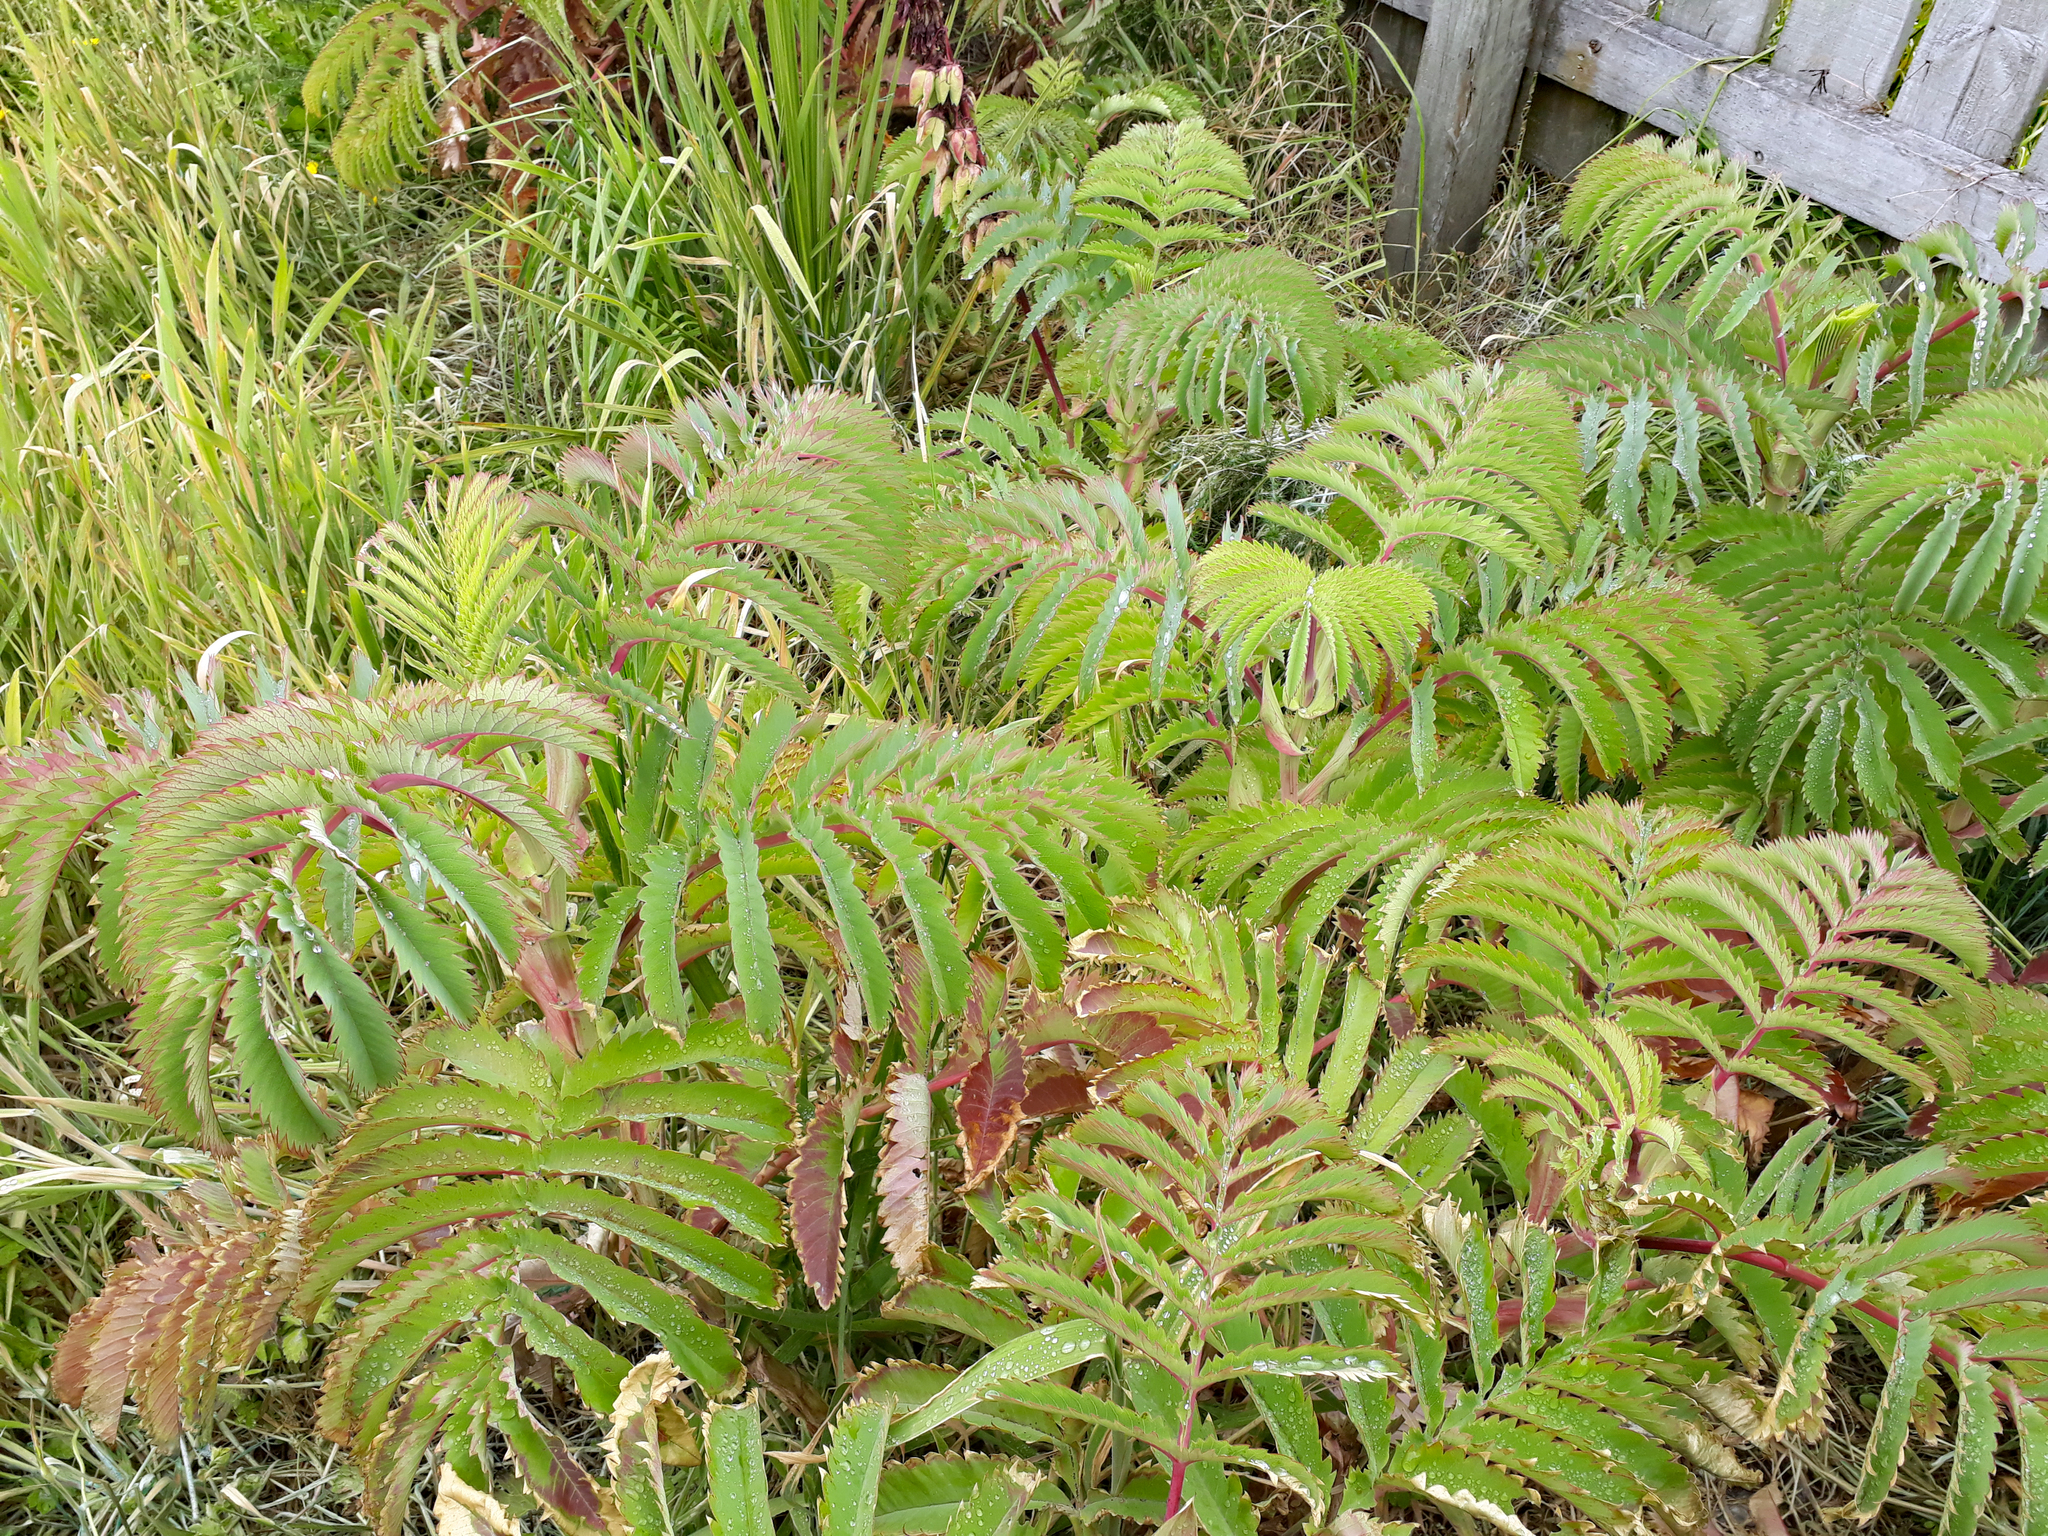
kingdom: Plantae
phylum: Tracheophyta
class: Magnoliopsida
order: Geraniales
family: Melianthaceae
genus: Melianthus
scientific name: Melianthus major
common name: Honey-flower
